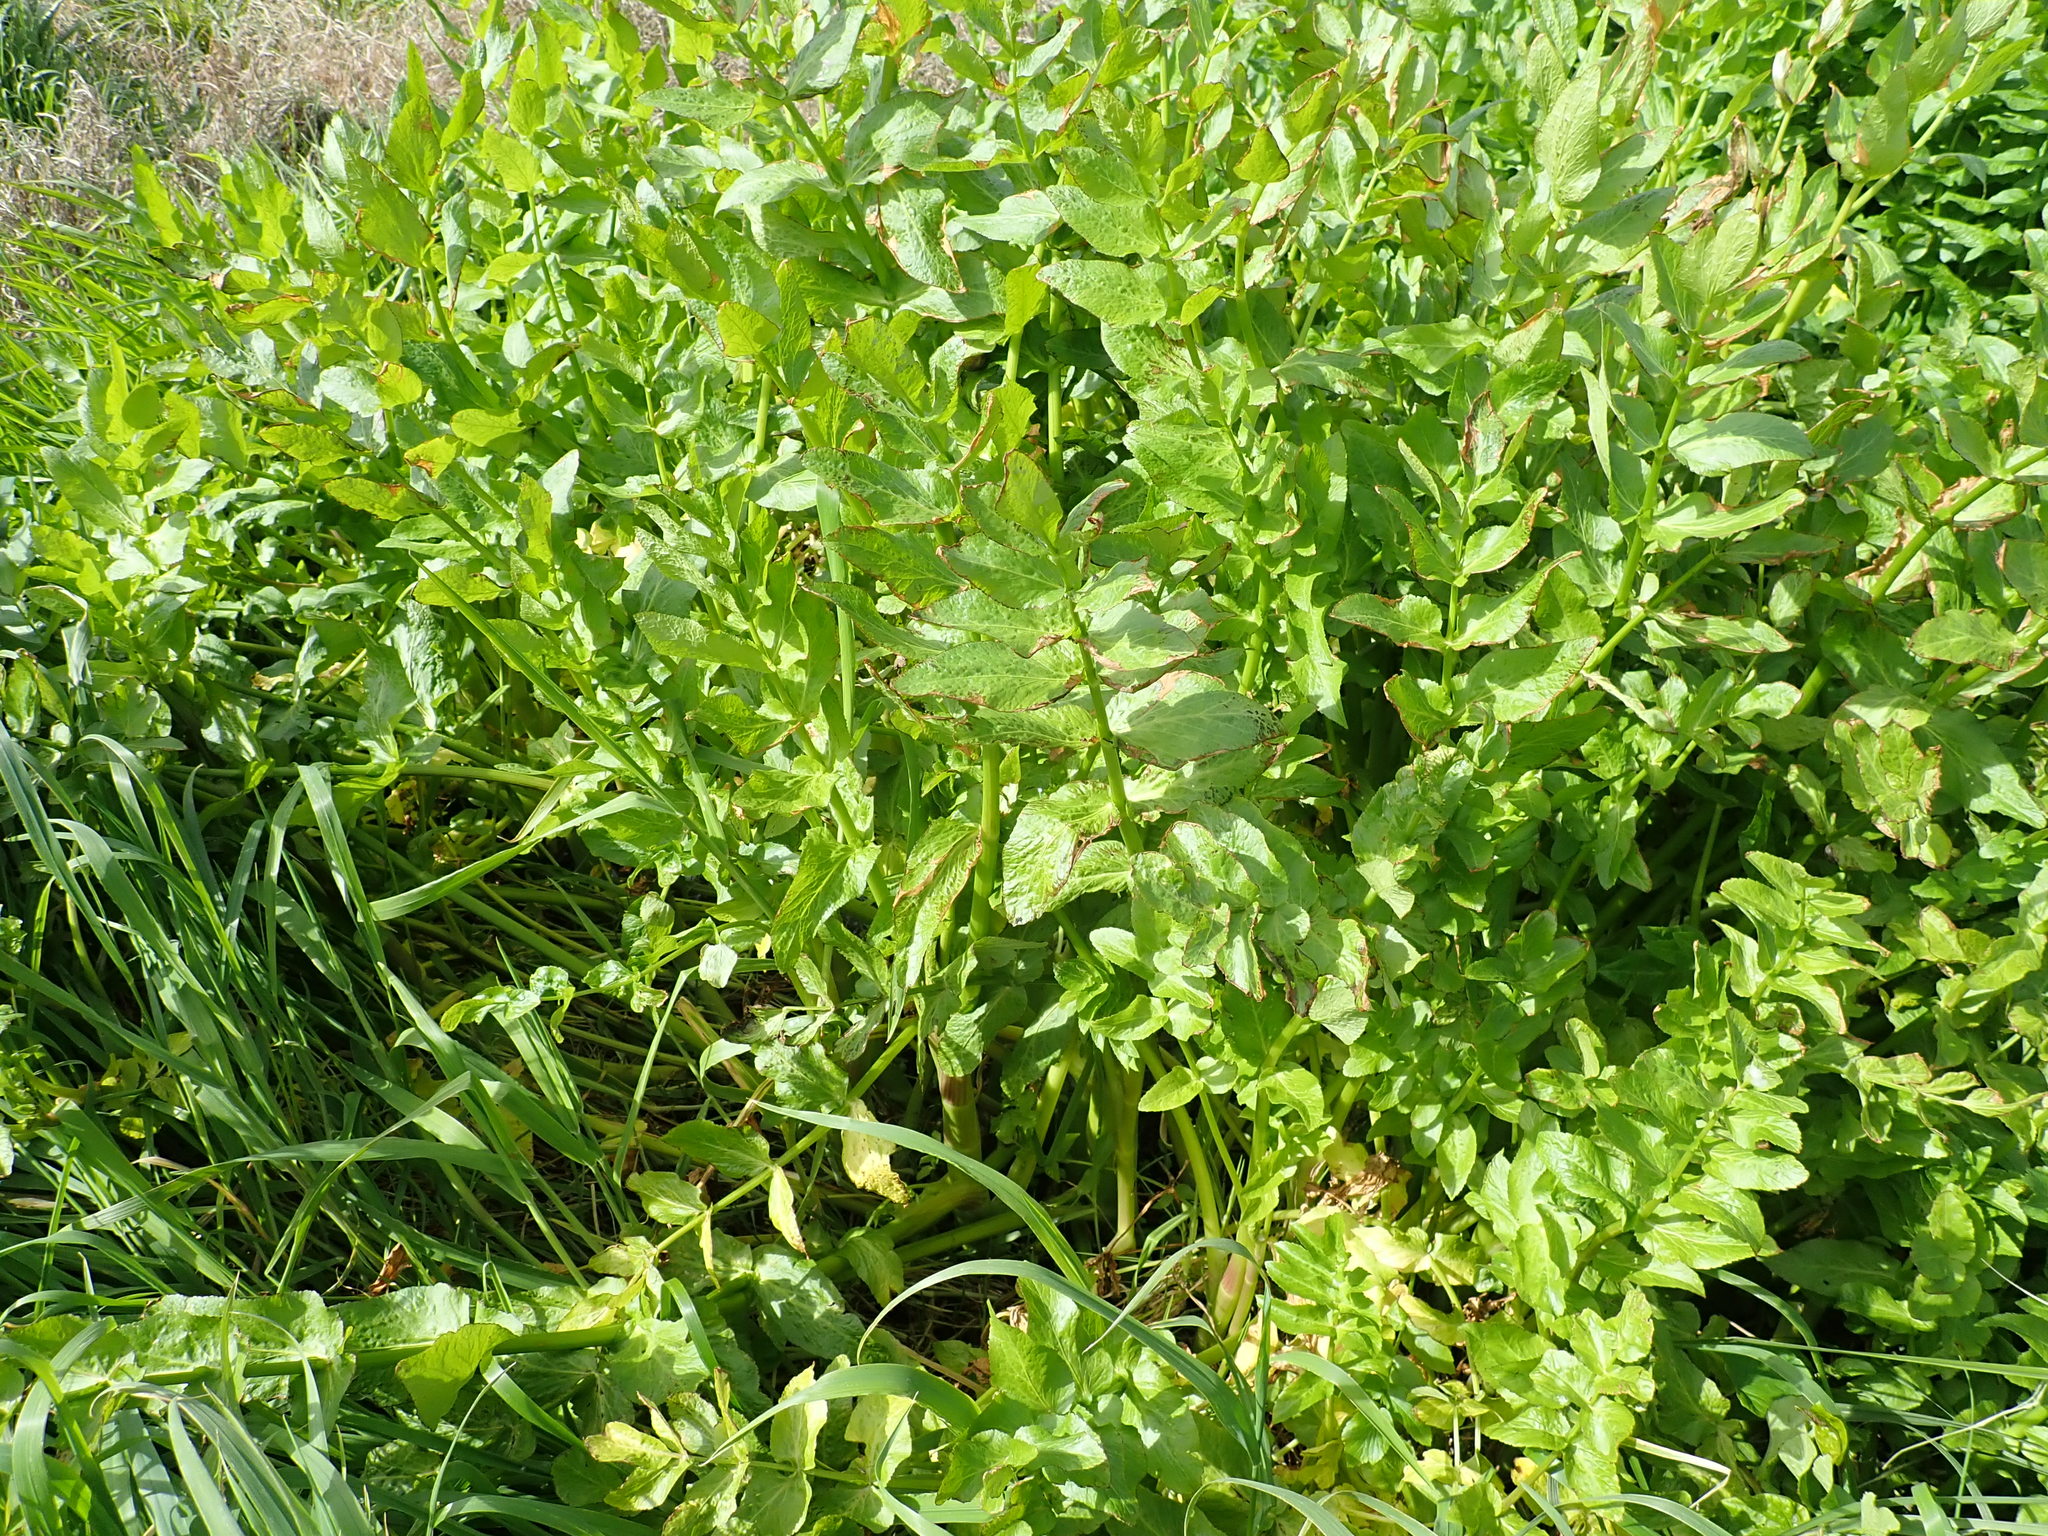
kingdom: Plantae
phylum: Tracheophyta
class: Magnoliopsida
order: Apiales
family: Apiaceae
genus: Helosciadium
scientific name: Helosciadium nodiflorum
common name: Fool's-watercress
